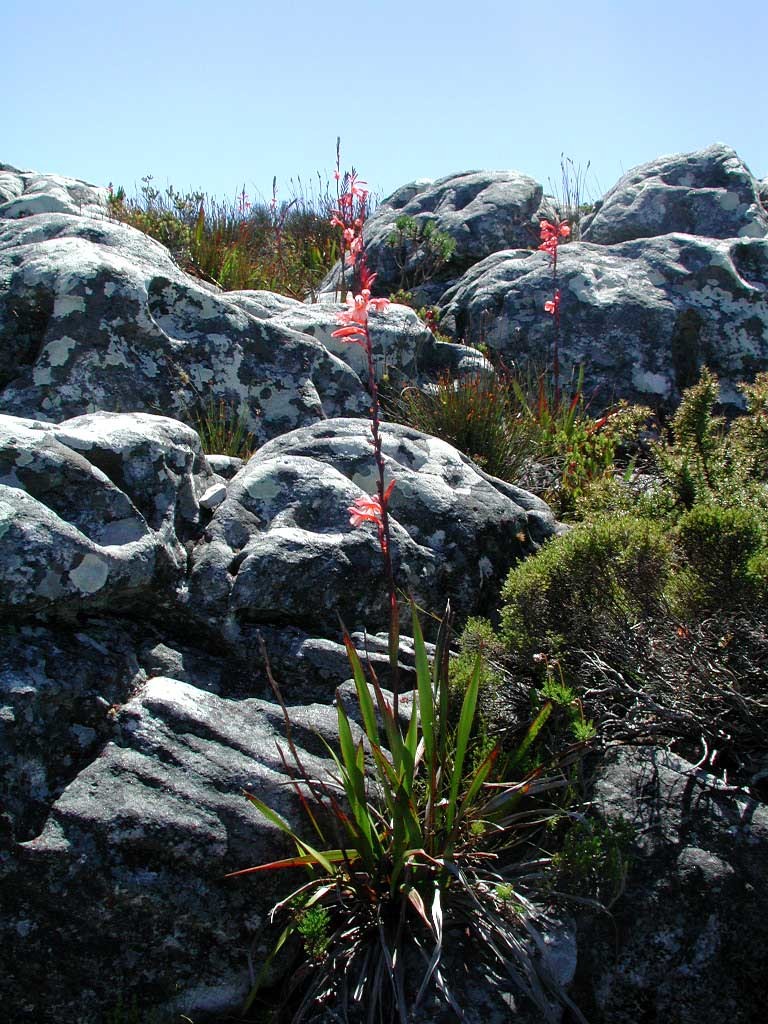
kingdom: Plantae
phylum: Tracheophyta
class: Liliopsida
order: Asparagales
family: Iridaceae
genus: Watsonia
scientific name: Watsonia tabularis
